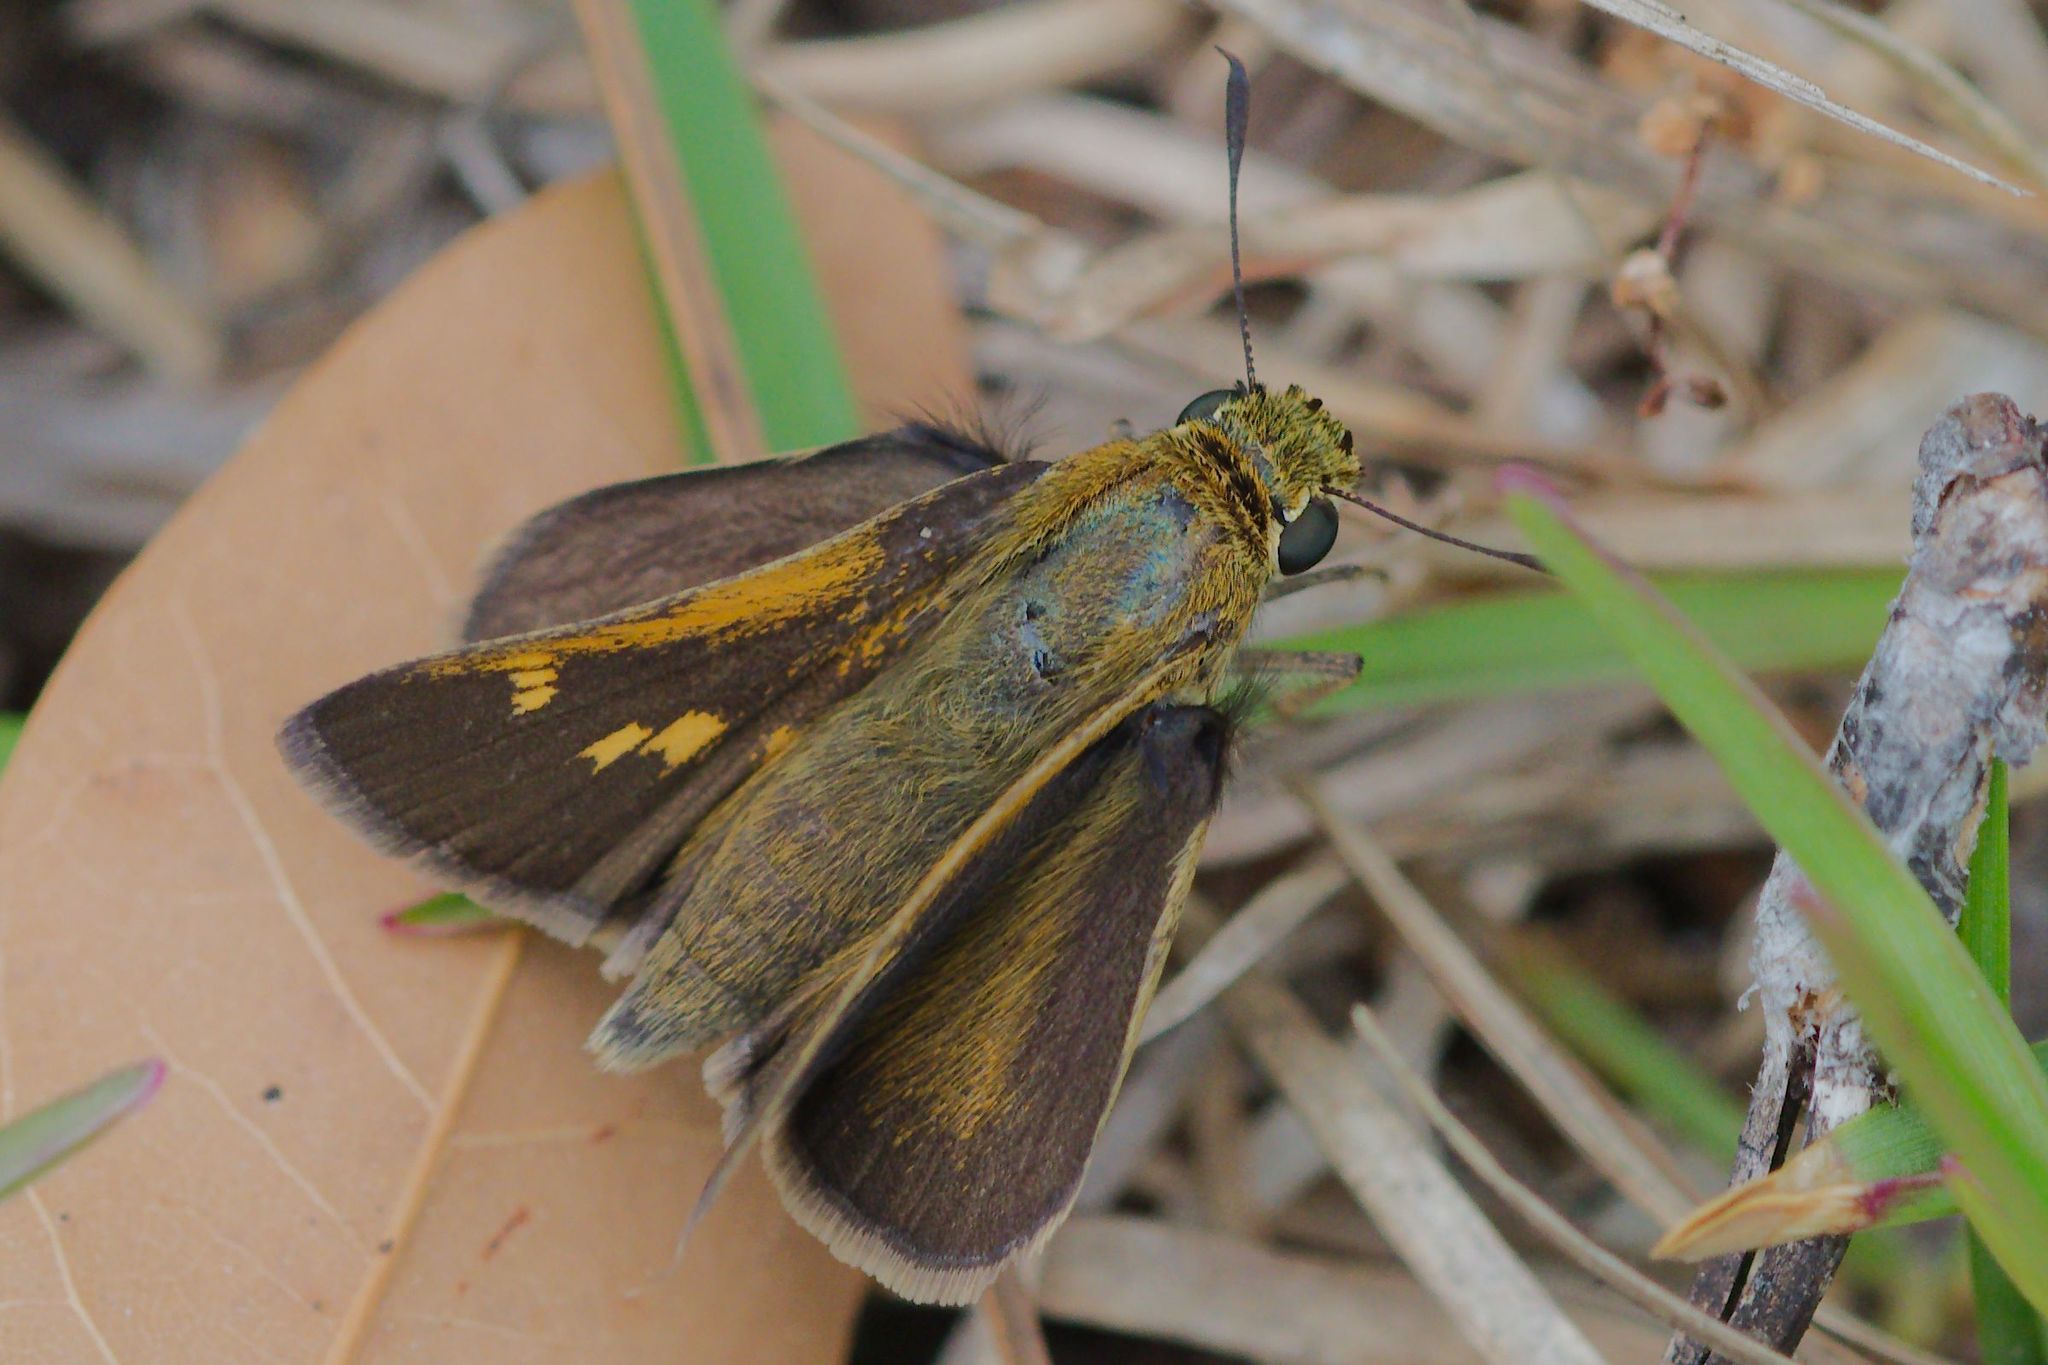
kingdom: Animalia
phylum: Arthropoda
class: Insecta
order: Lepidoptera
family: Hesperiidae
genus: Polites
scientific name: Polites themistocles
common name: Tawny-edged skipper
